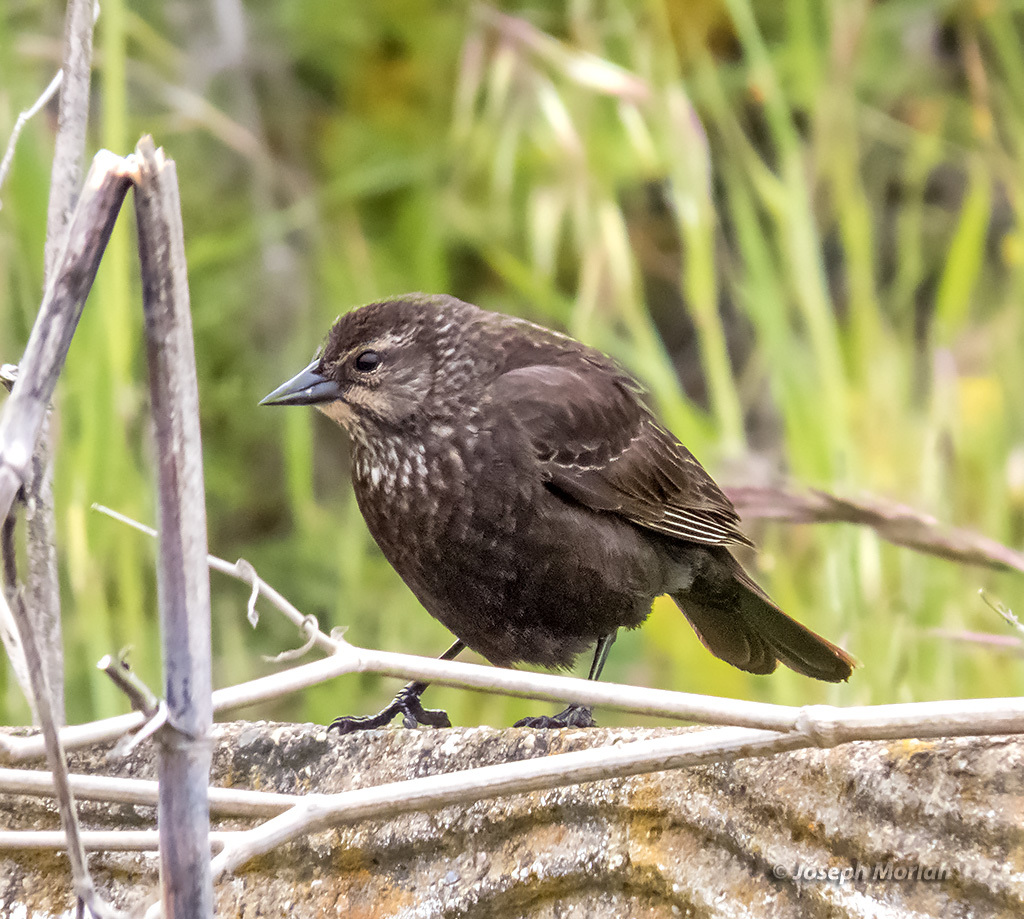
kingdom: Animalia
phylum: Chordata
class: Aves
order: Passeriformes
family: Icteridae
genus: Agelaius
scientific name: Agelaius phoeniceus
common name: Red-winged blackbird
